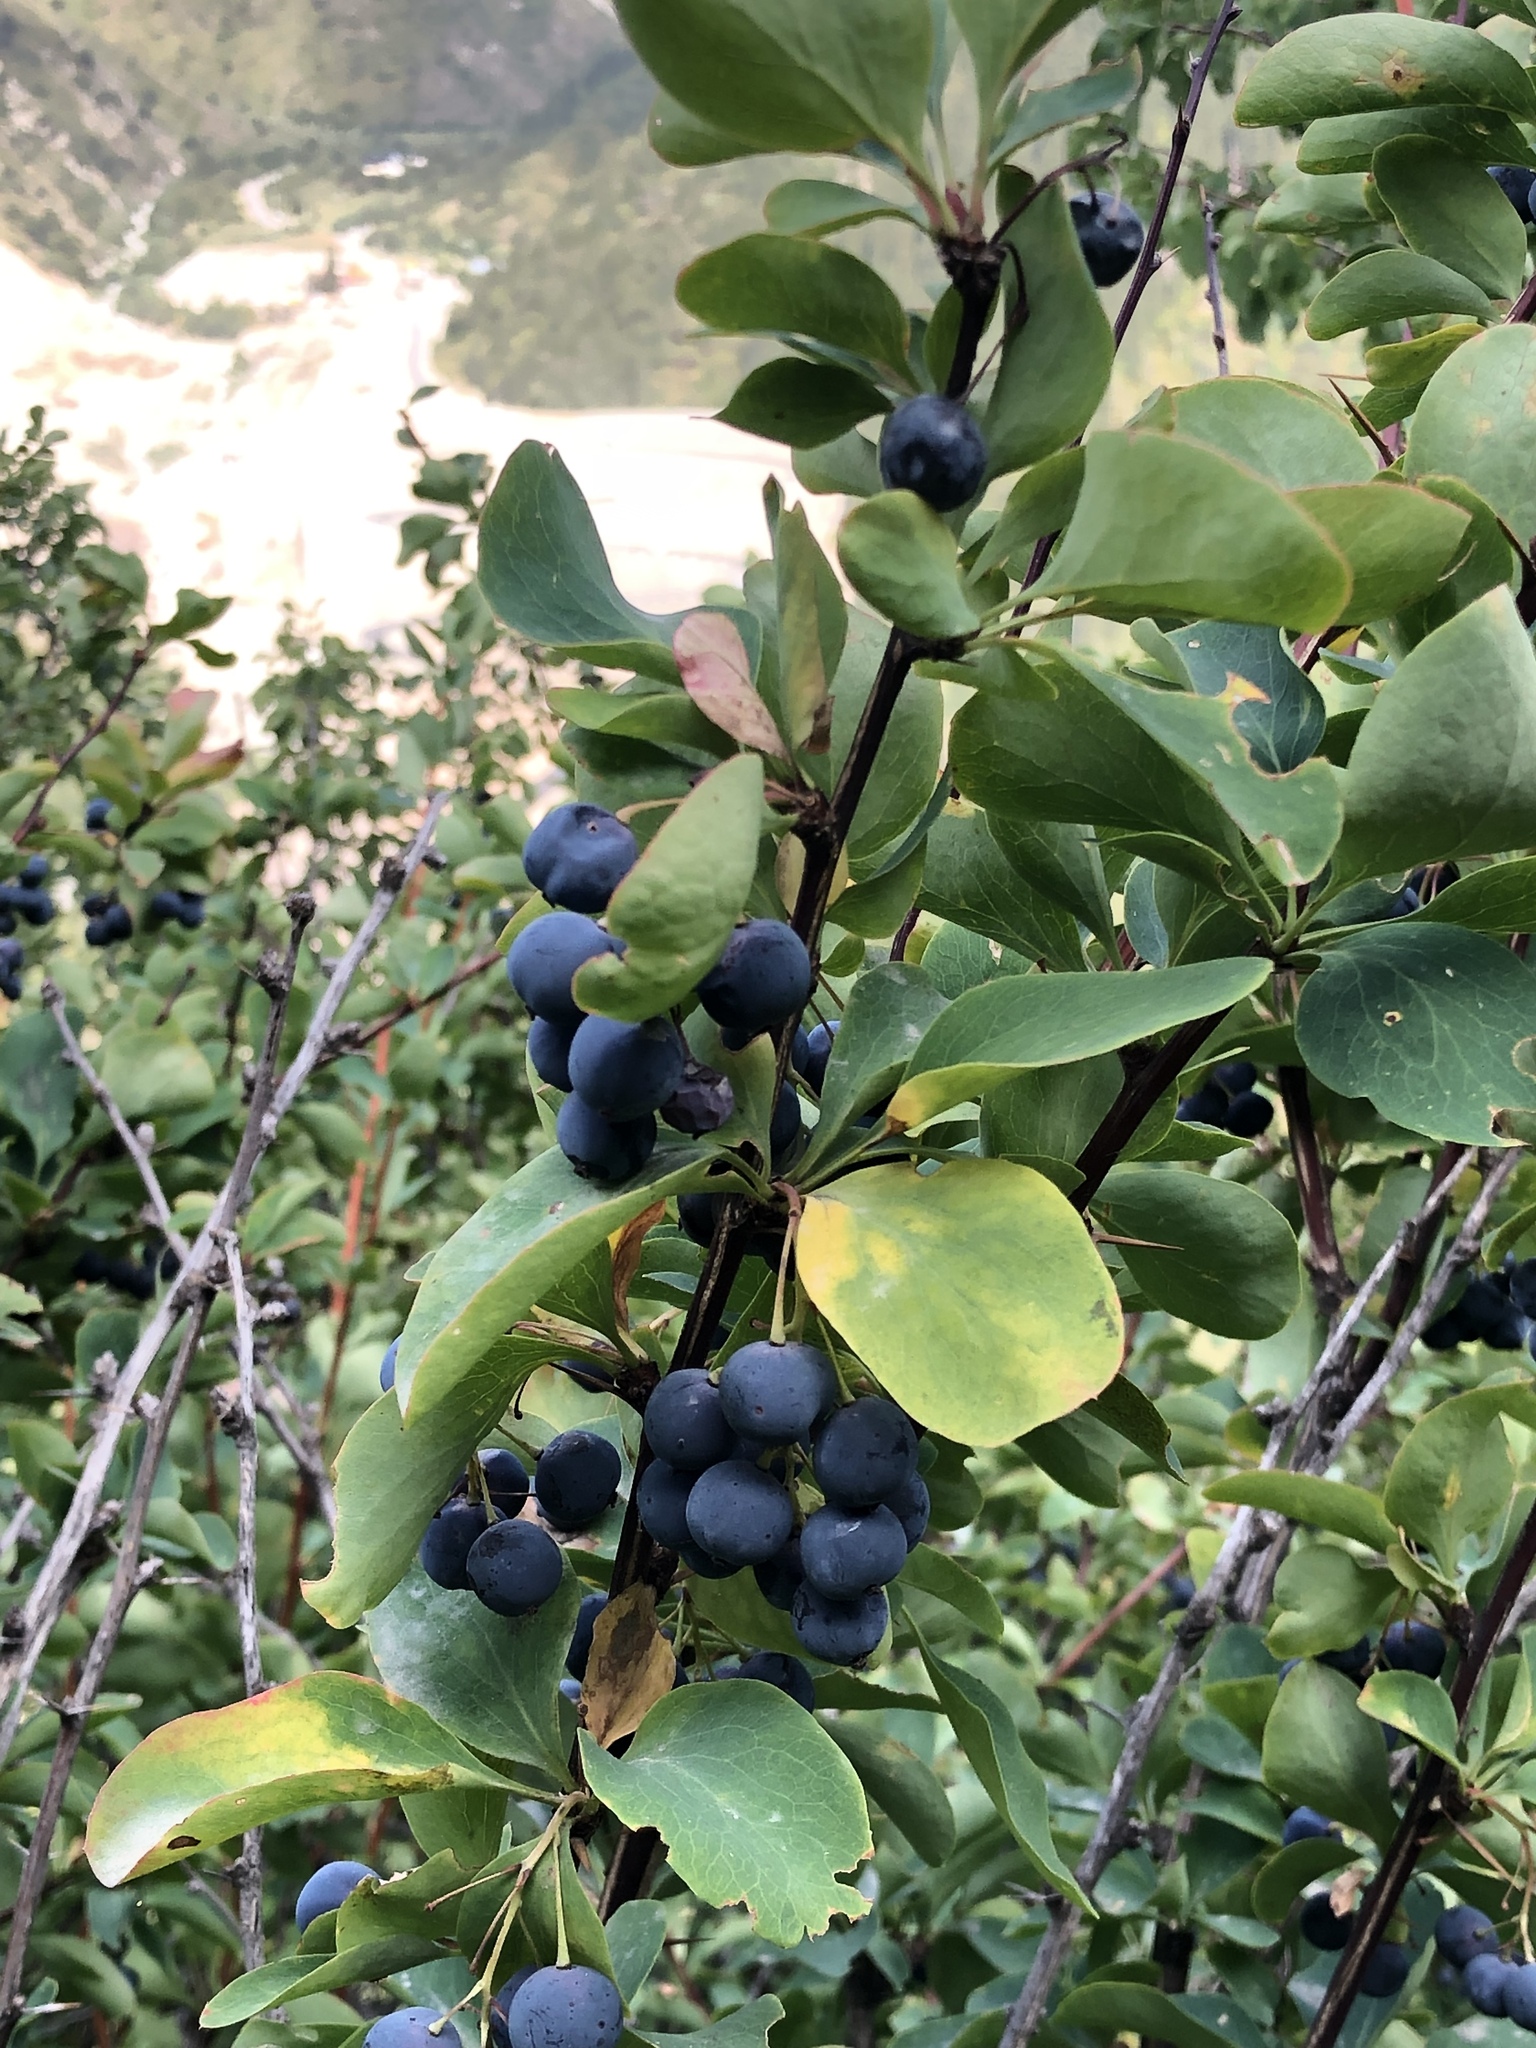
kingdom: Plantae
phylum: Tracheophyta
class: Magnoliopsida
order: Ranunculales
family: Berberidaceae
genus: Berberis
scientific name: Berberis heteropoda
